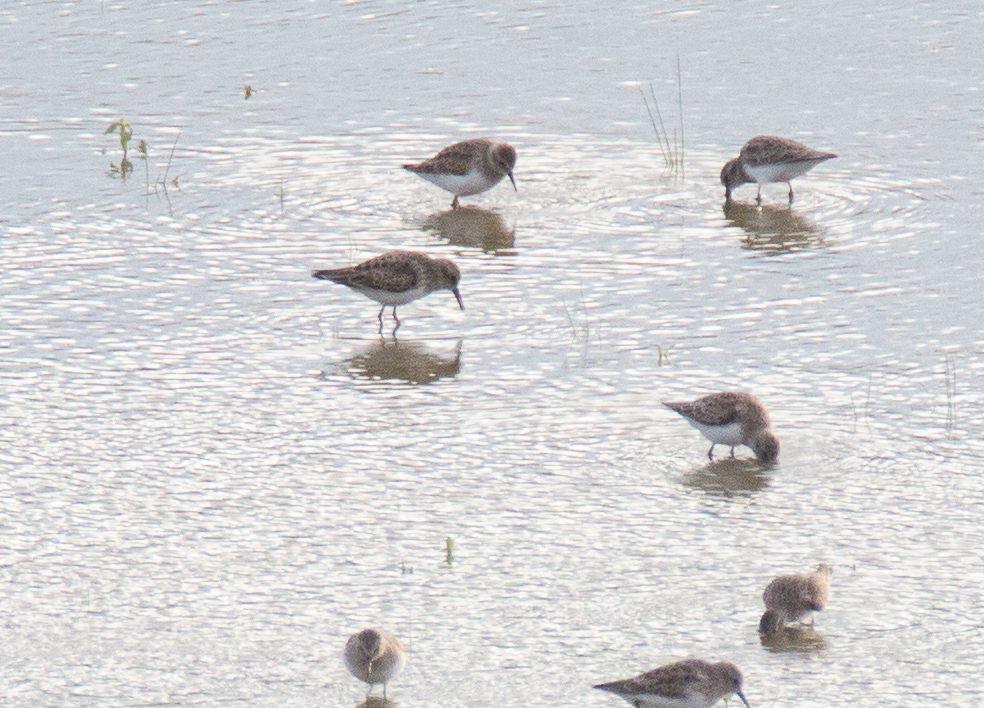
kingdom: Animalia
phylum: Chordata
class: Aves
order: Charadriiformes
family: Scolopacidae
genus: Calidris
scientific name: Calidris minutilla
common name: Least sandpiper
